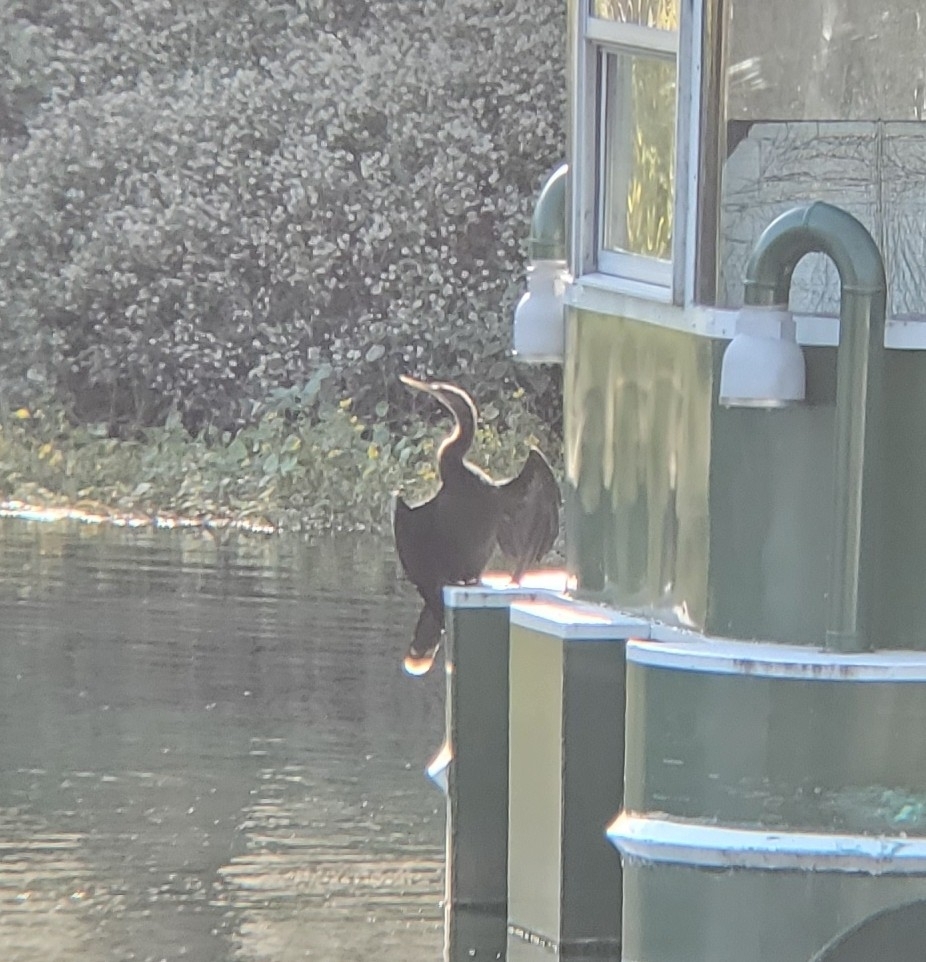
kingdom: Animalia
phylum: Chordata
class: Aves
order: Suliformes
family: Anhingidae
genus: Anhinga
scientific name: Anhinga anhinga
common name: Anhinga
